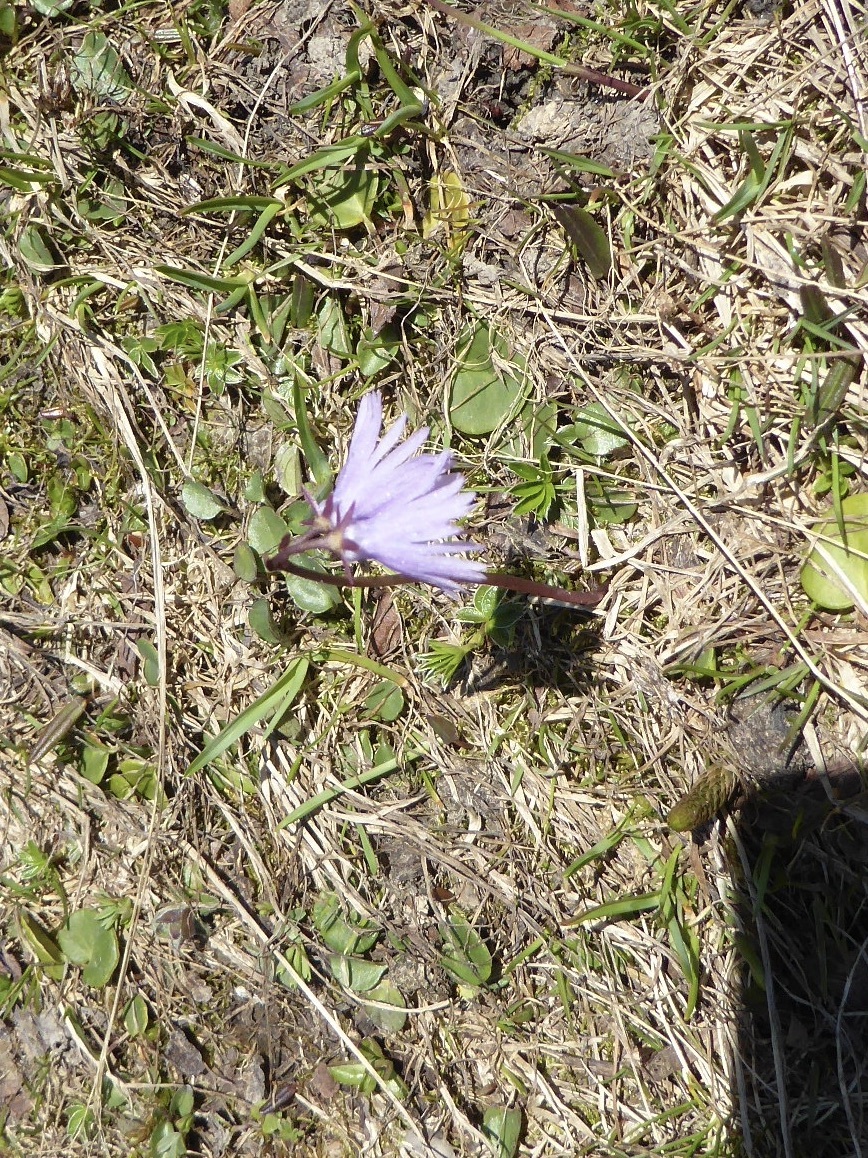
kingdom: Plantae
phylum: Tracheophyta
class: Magnoliopsida
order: Ericales
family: Primulaceae
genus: Soldanella
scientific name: Soldanella alpina
